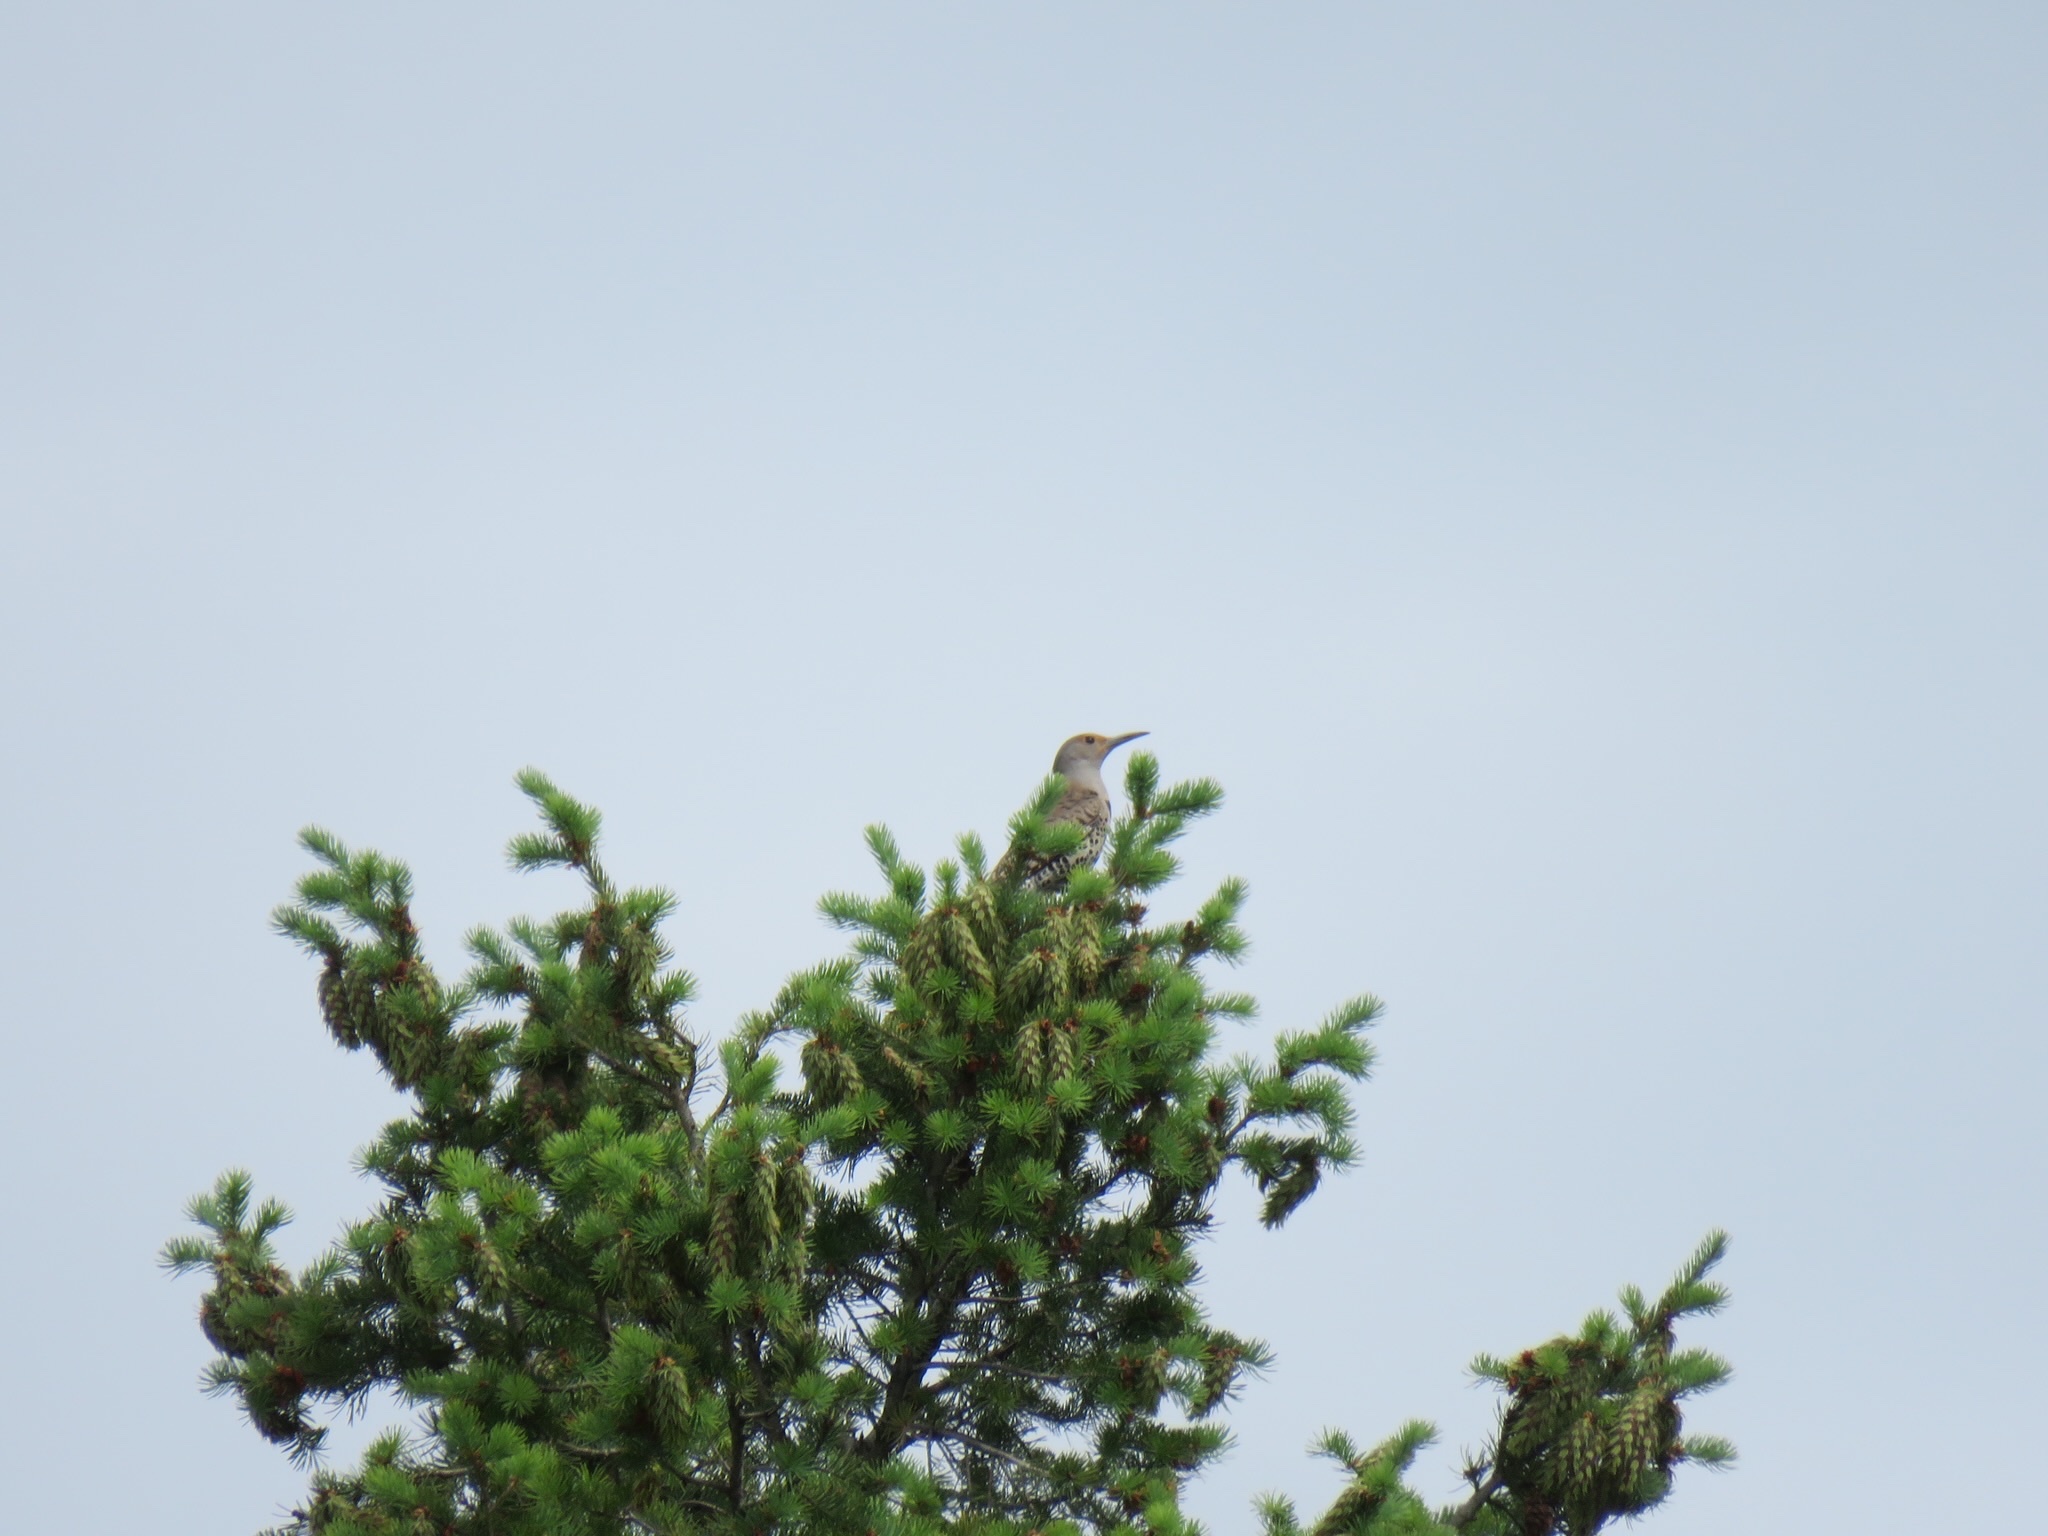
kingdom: Animalia
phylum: Chordata
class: Aves
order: Piciformes
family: Picidae
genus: Colaptes
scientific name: Colaptes auratus
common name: Northern flicker
